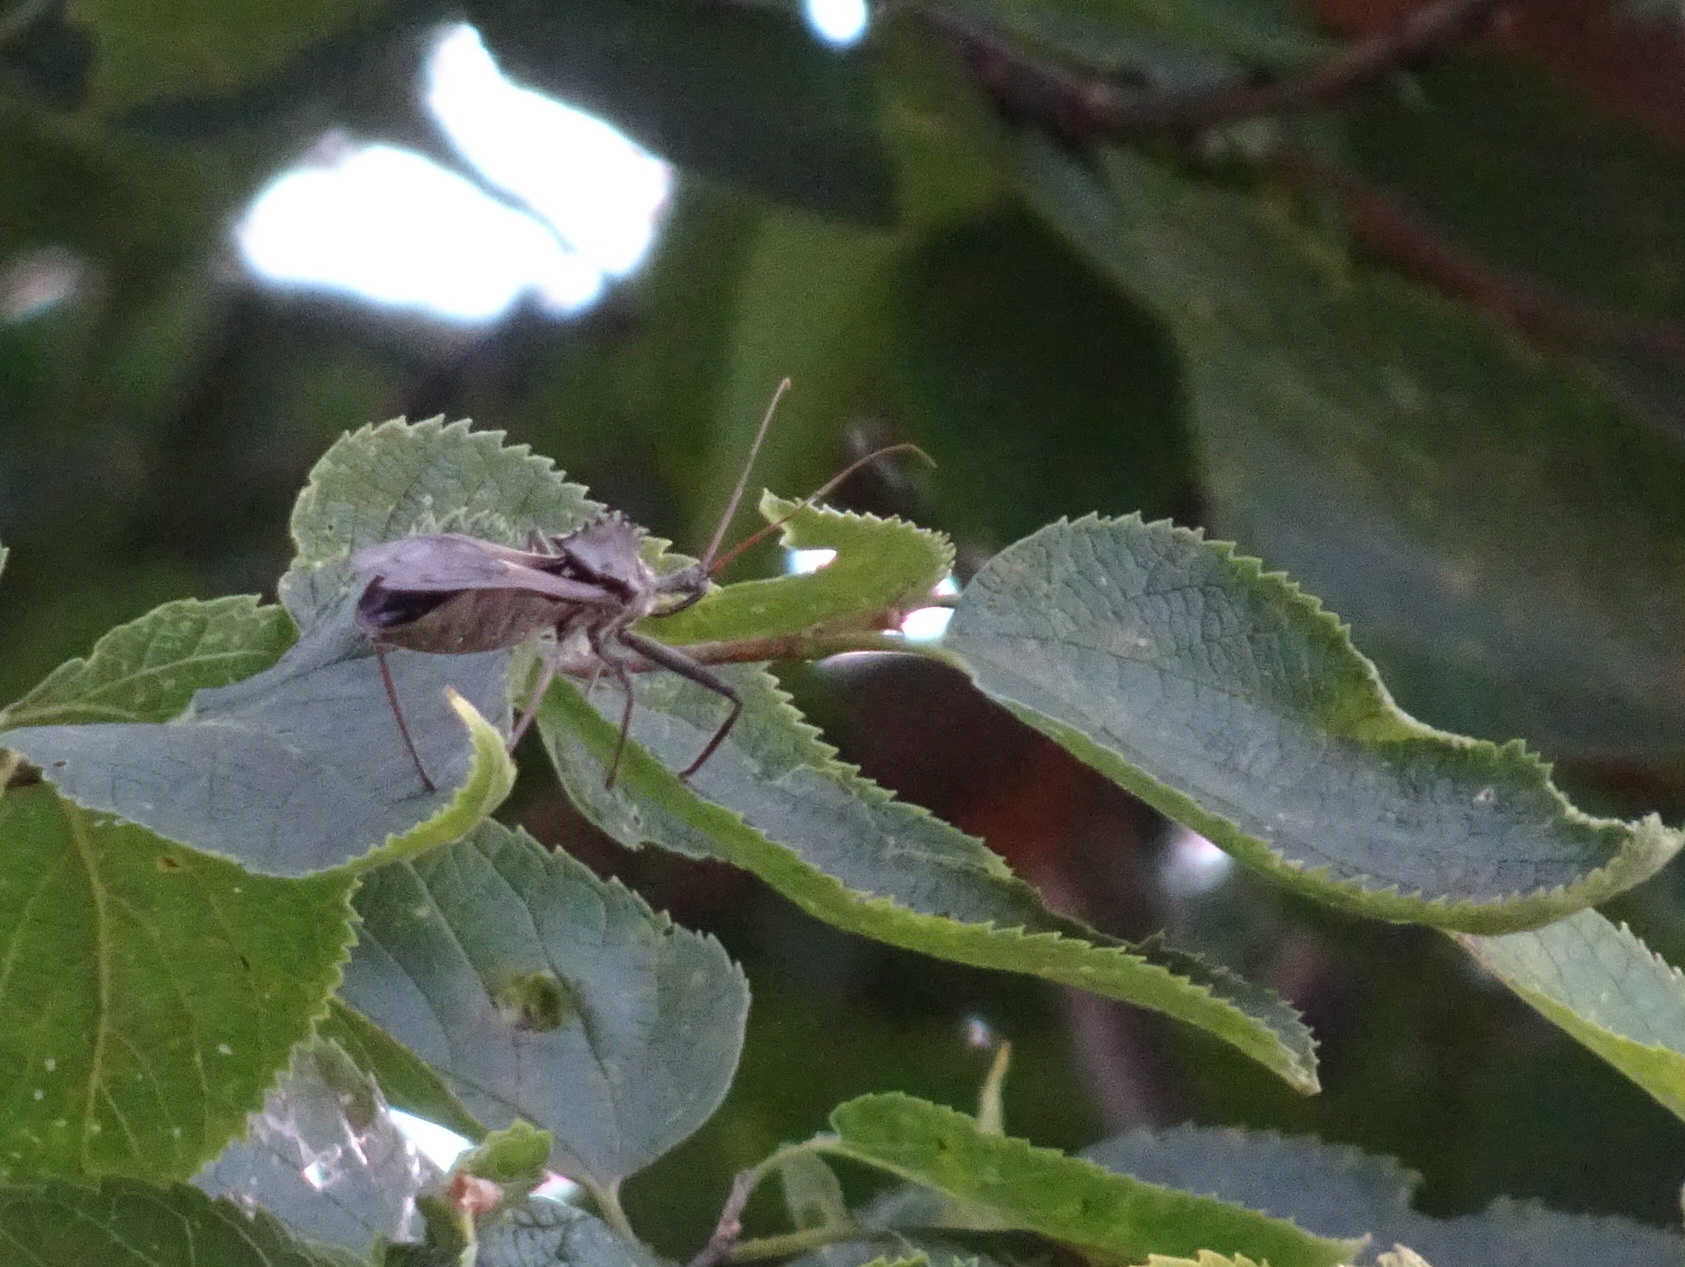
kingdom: Animalia
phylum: Arthropoda
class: Insecta
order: Hemiptera
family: Reduviidae
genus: Arilus
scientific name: Arilus cristatus
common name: North american wheel bug
